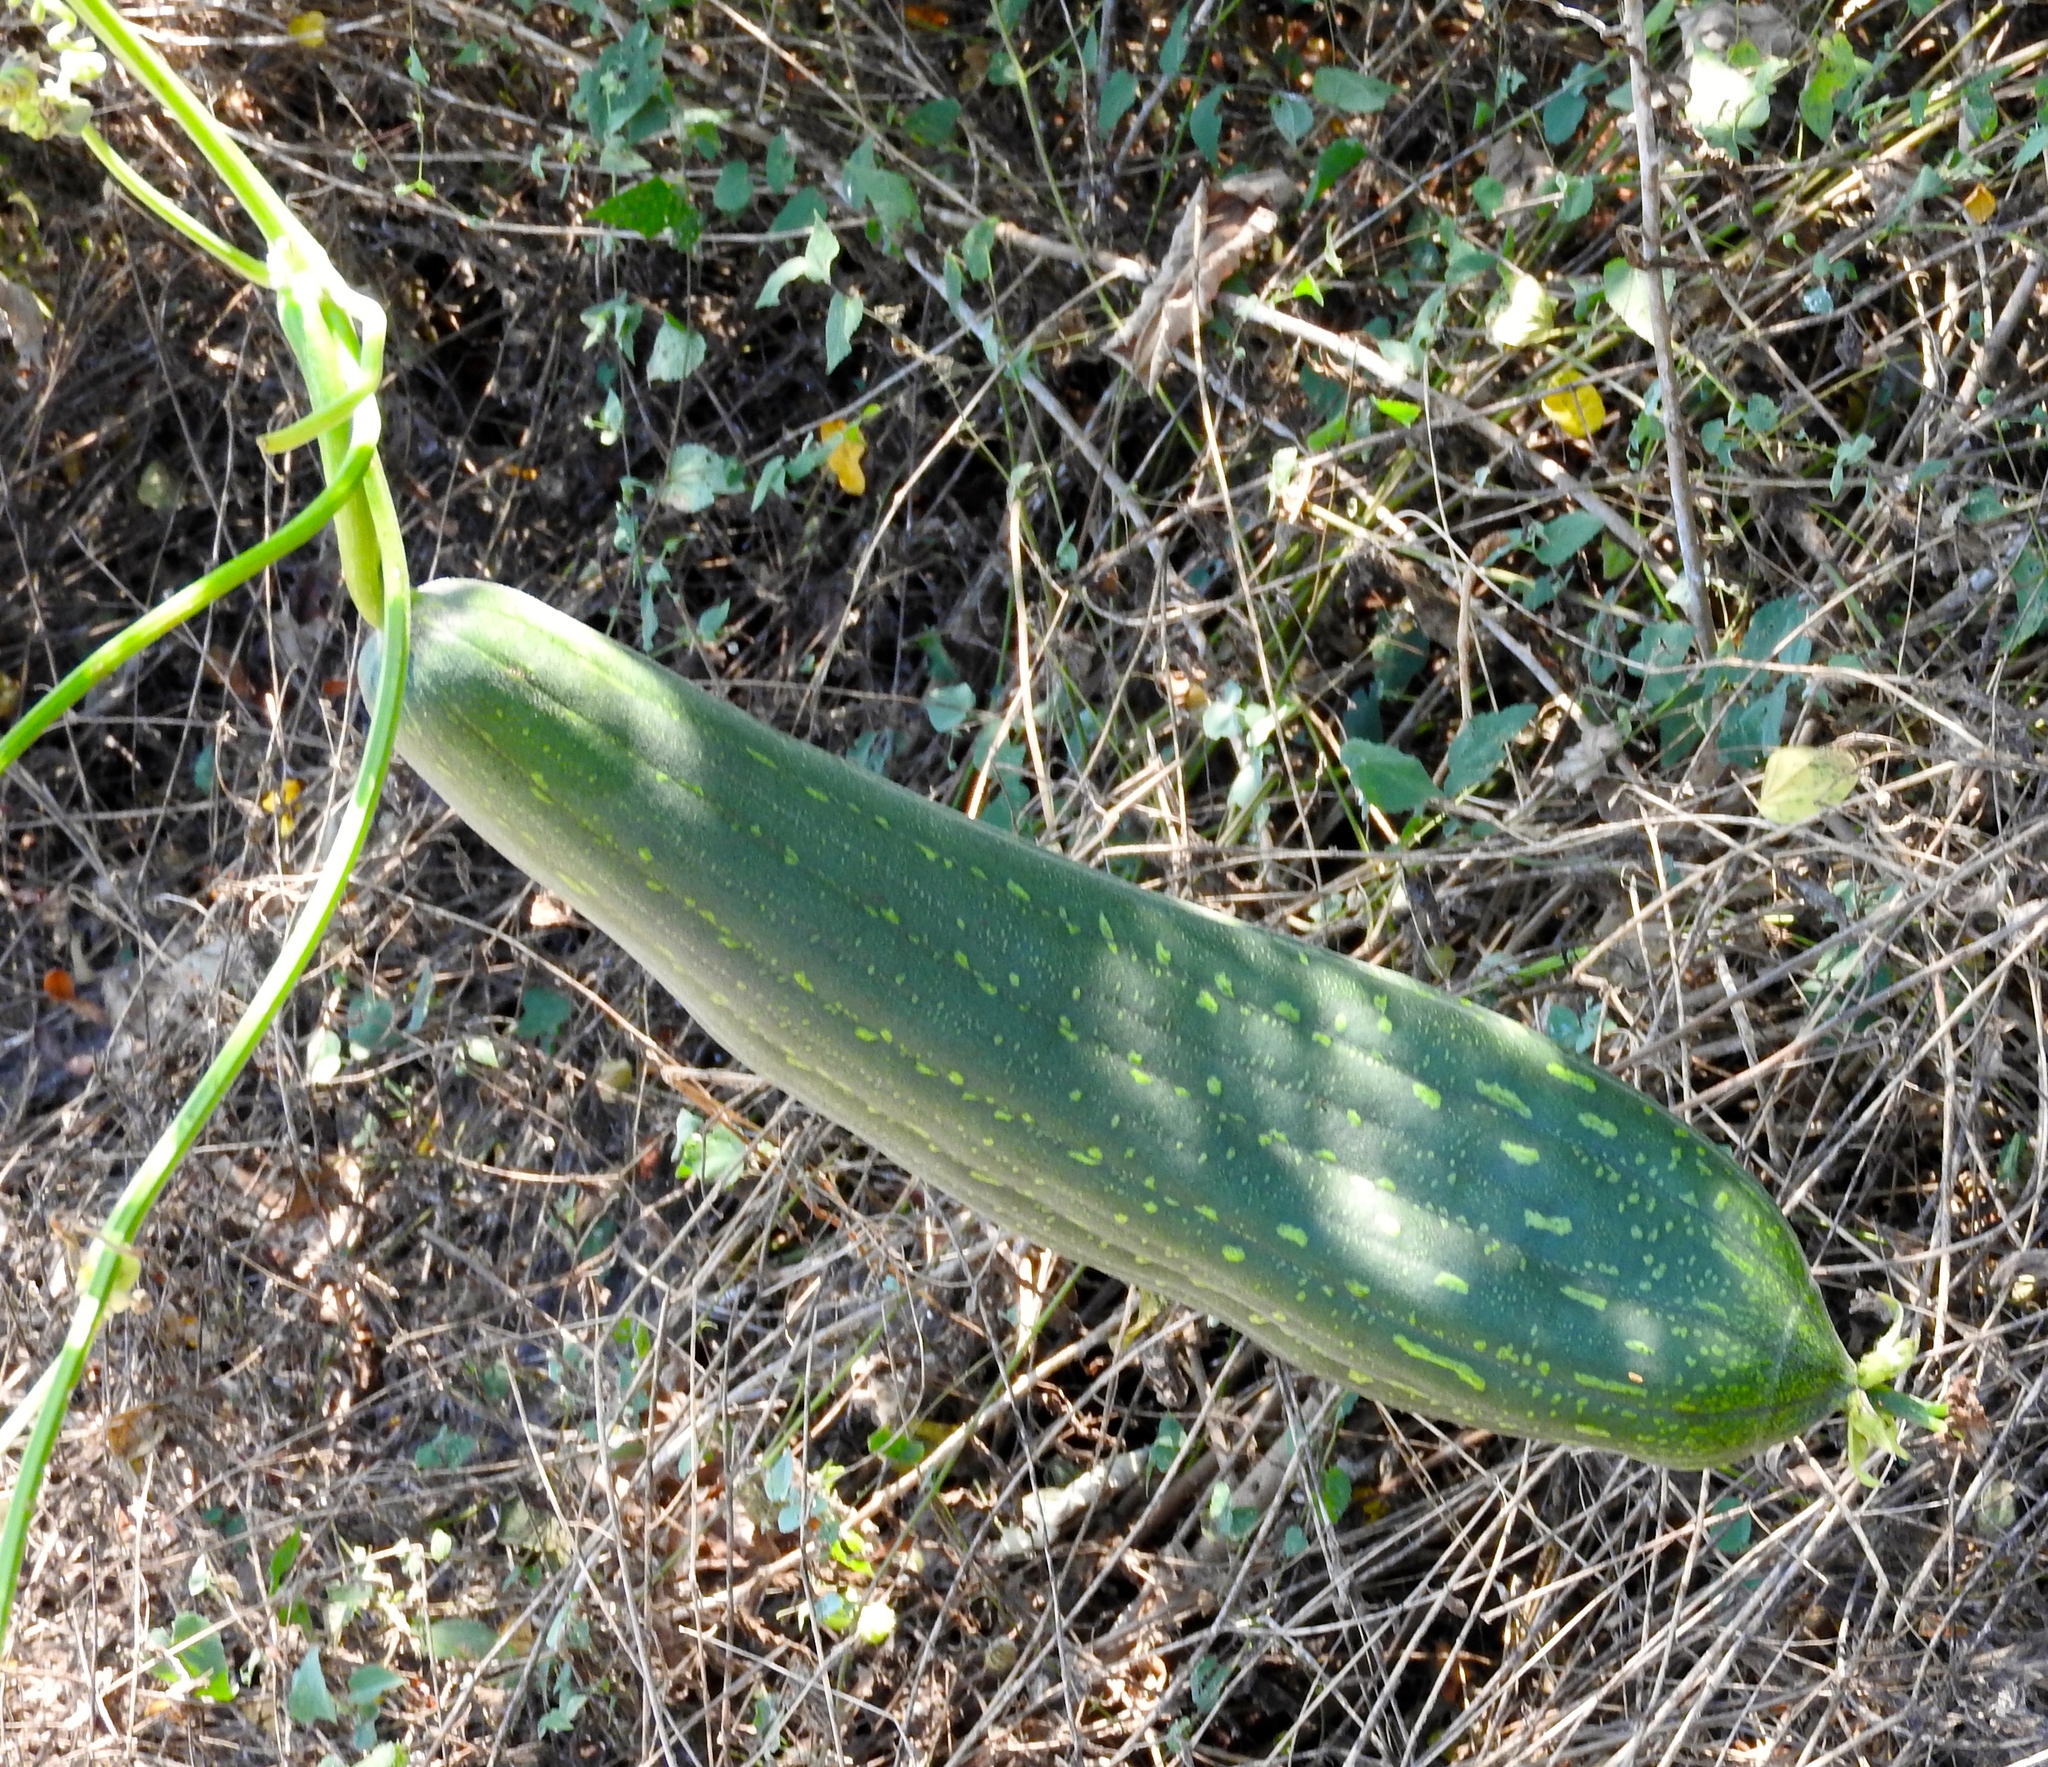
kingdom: Plantae
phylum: Tracheophyta
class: Magnoliopsida
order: Cucurbitales
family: Cucurbitaceae
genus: Luffa
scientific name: Luffa aegyptiaca
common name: Sponge gourd
